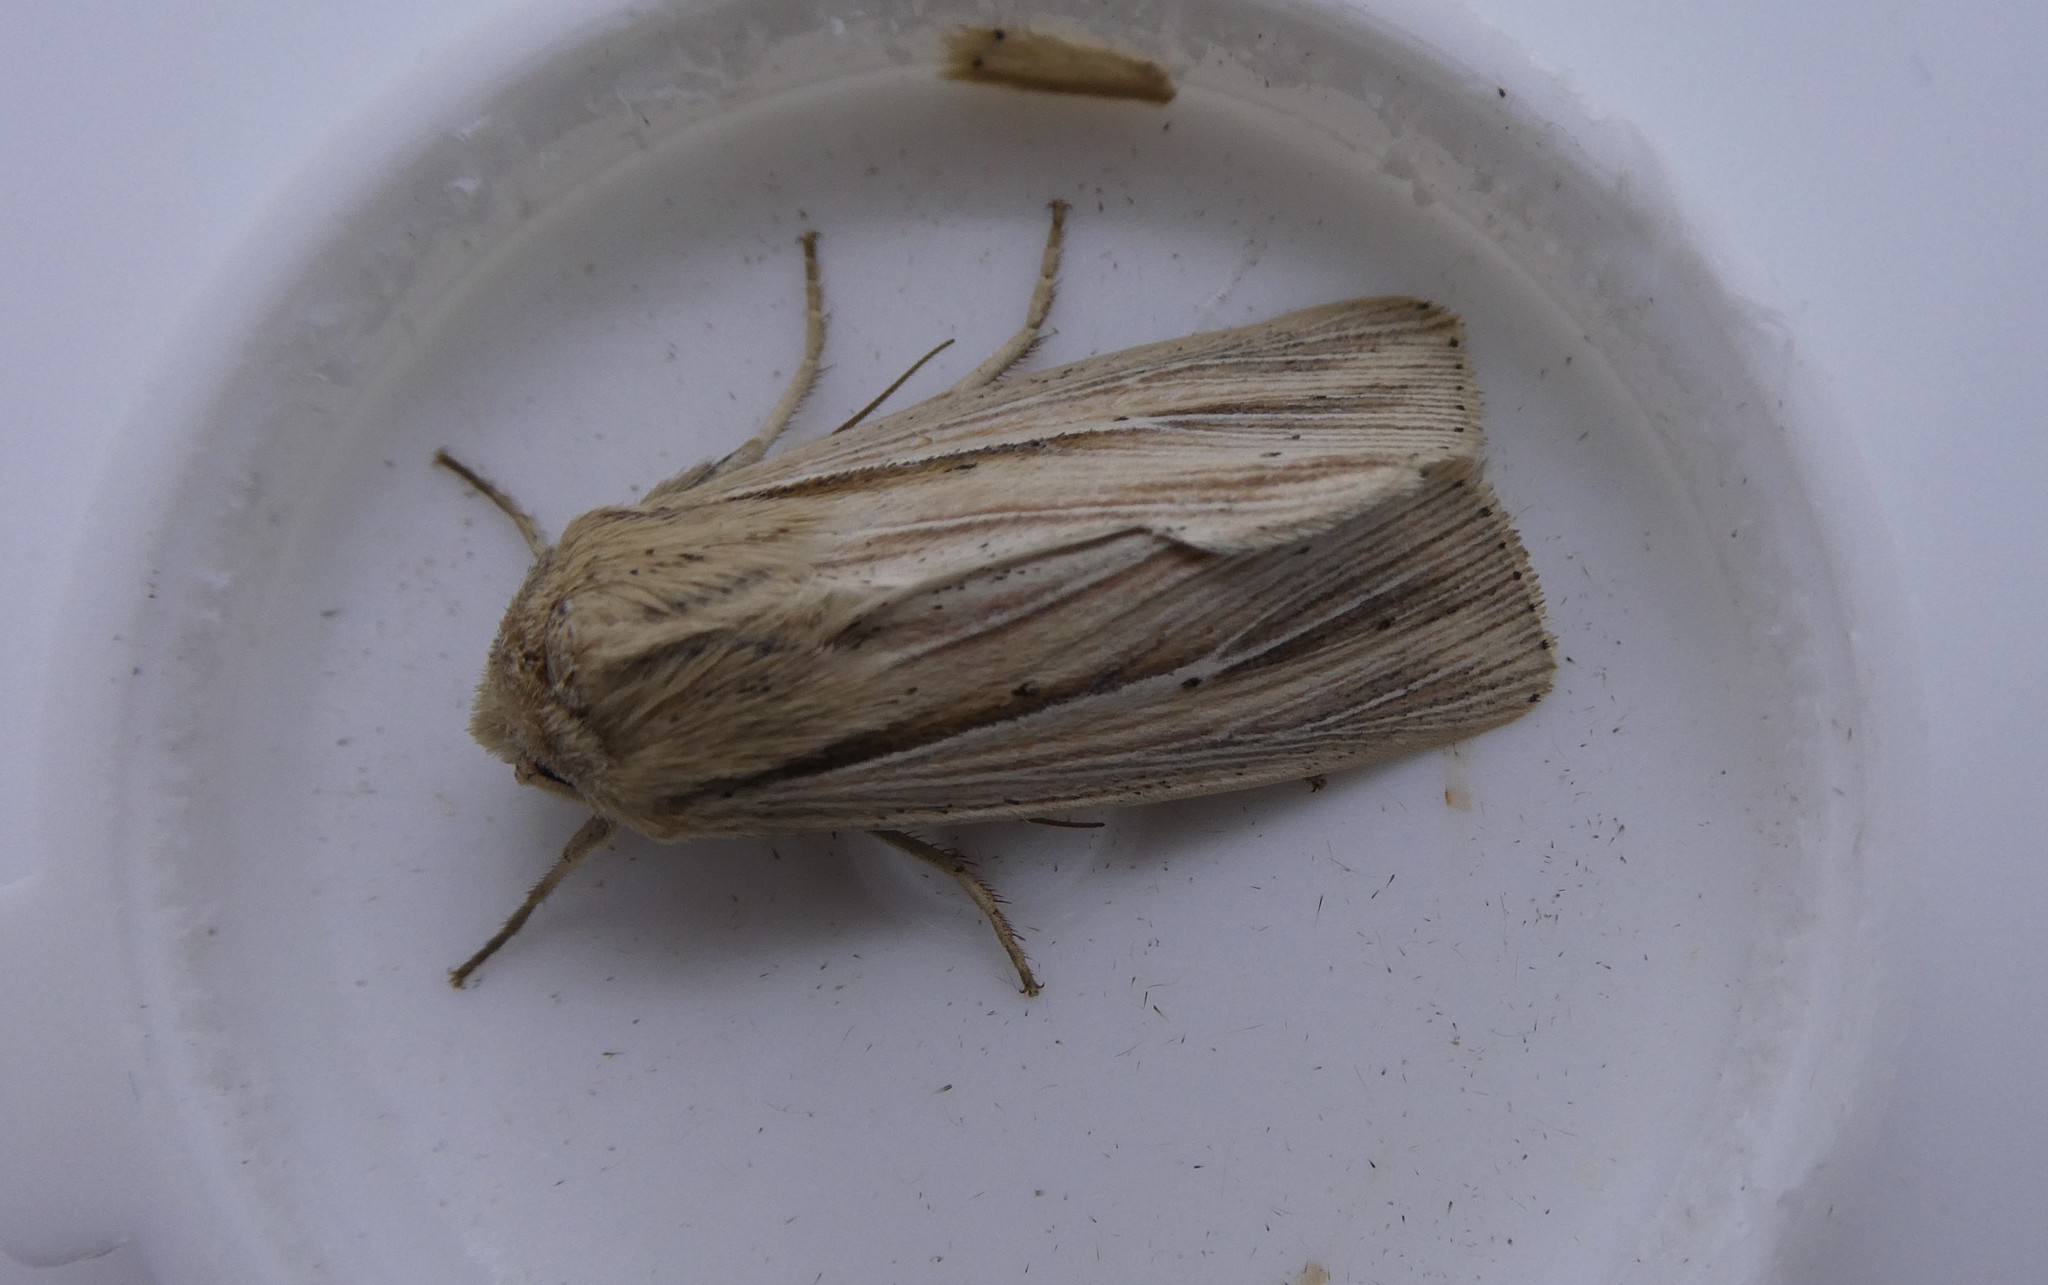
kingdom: Animalia
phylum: Arthropoda
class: Insecta
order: Lepidoptera
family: Noctuidae
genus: Leucania
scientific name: Leucania commoides
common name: Two-lined wainscot
